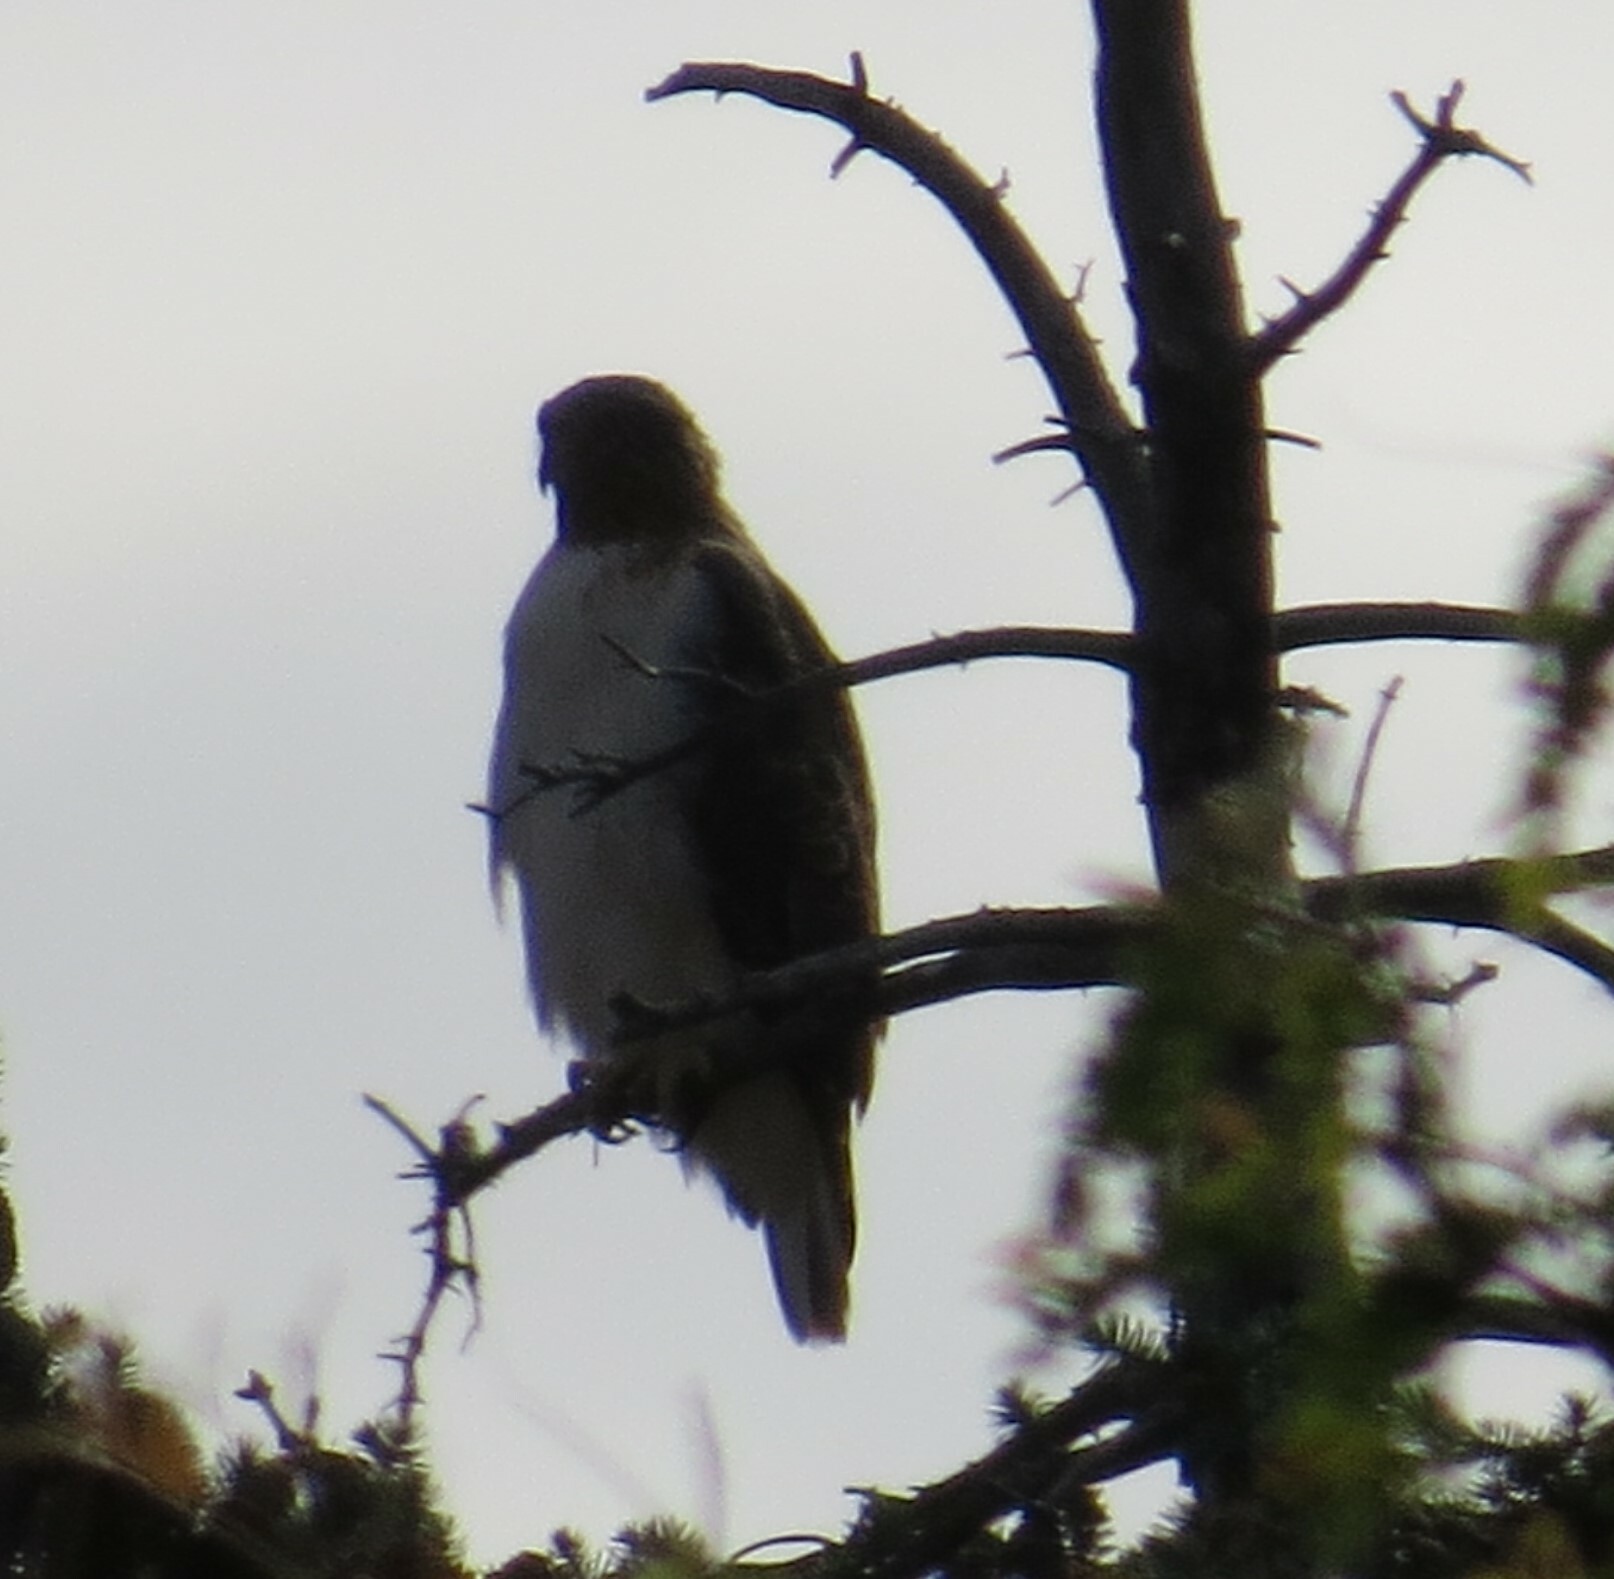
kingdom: Animalia
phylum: Chordata
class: Aves
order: Accipitriformes
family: Accipitridae
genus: Buteo
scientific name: Buteo jamaicensis
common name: Red-tailed hawk
